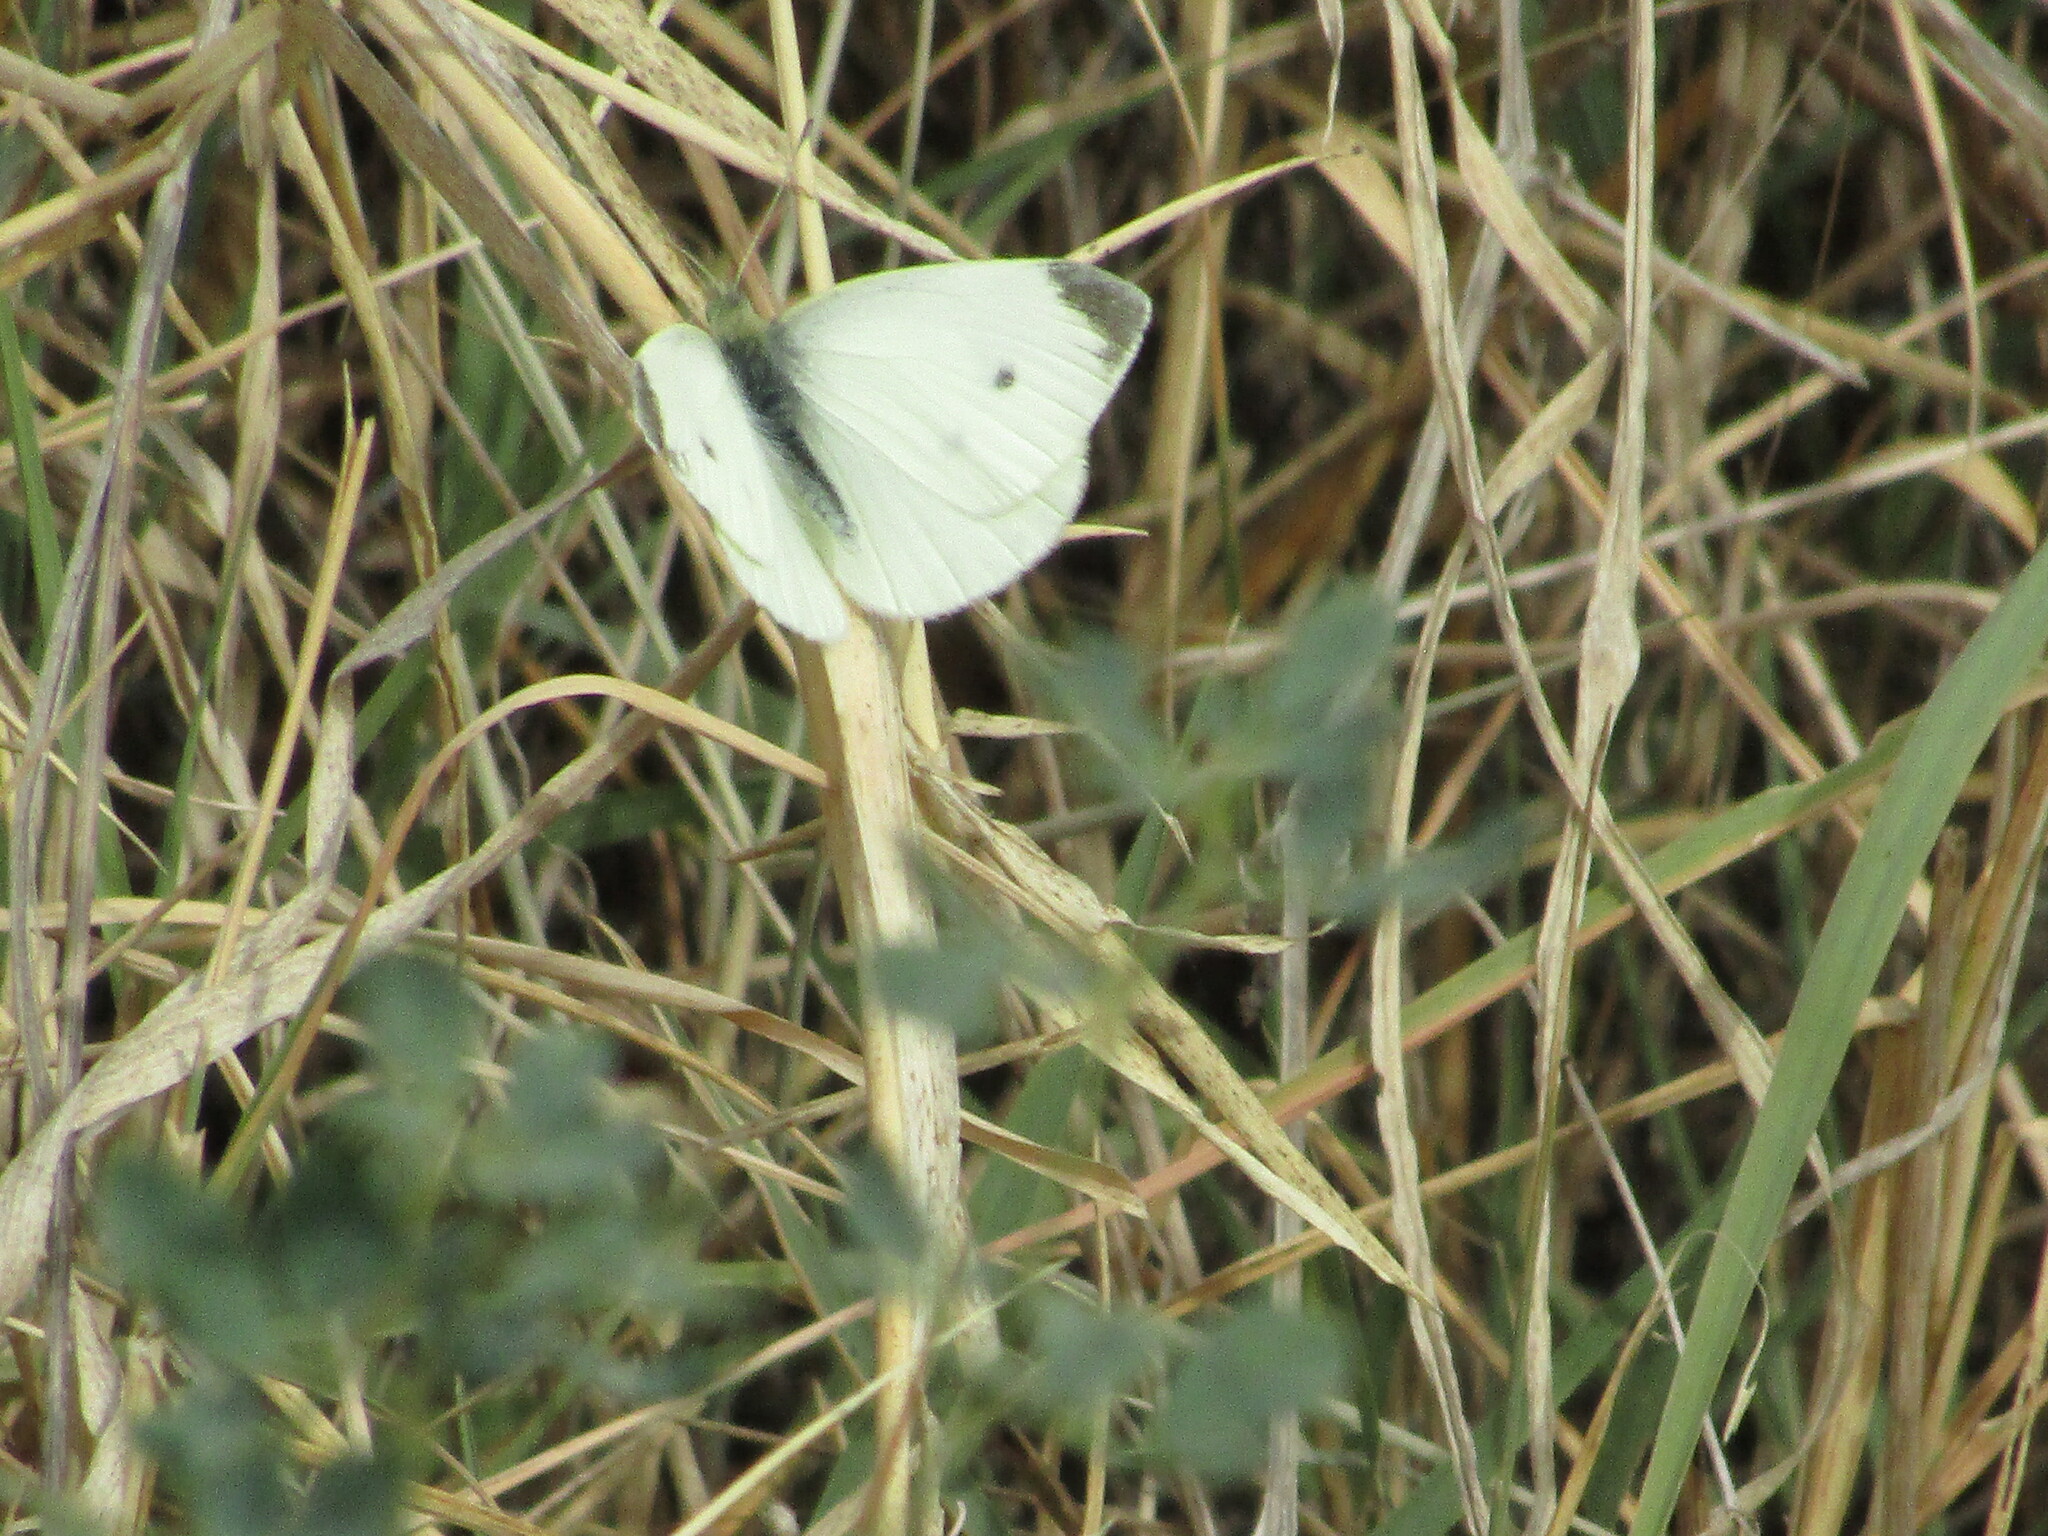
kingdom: Animalia
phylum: Arthropoda
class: Insecta
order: Lepidoptera
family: Pieridae
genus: Pieris
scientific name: Pieris rapae
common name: Small white
